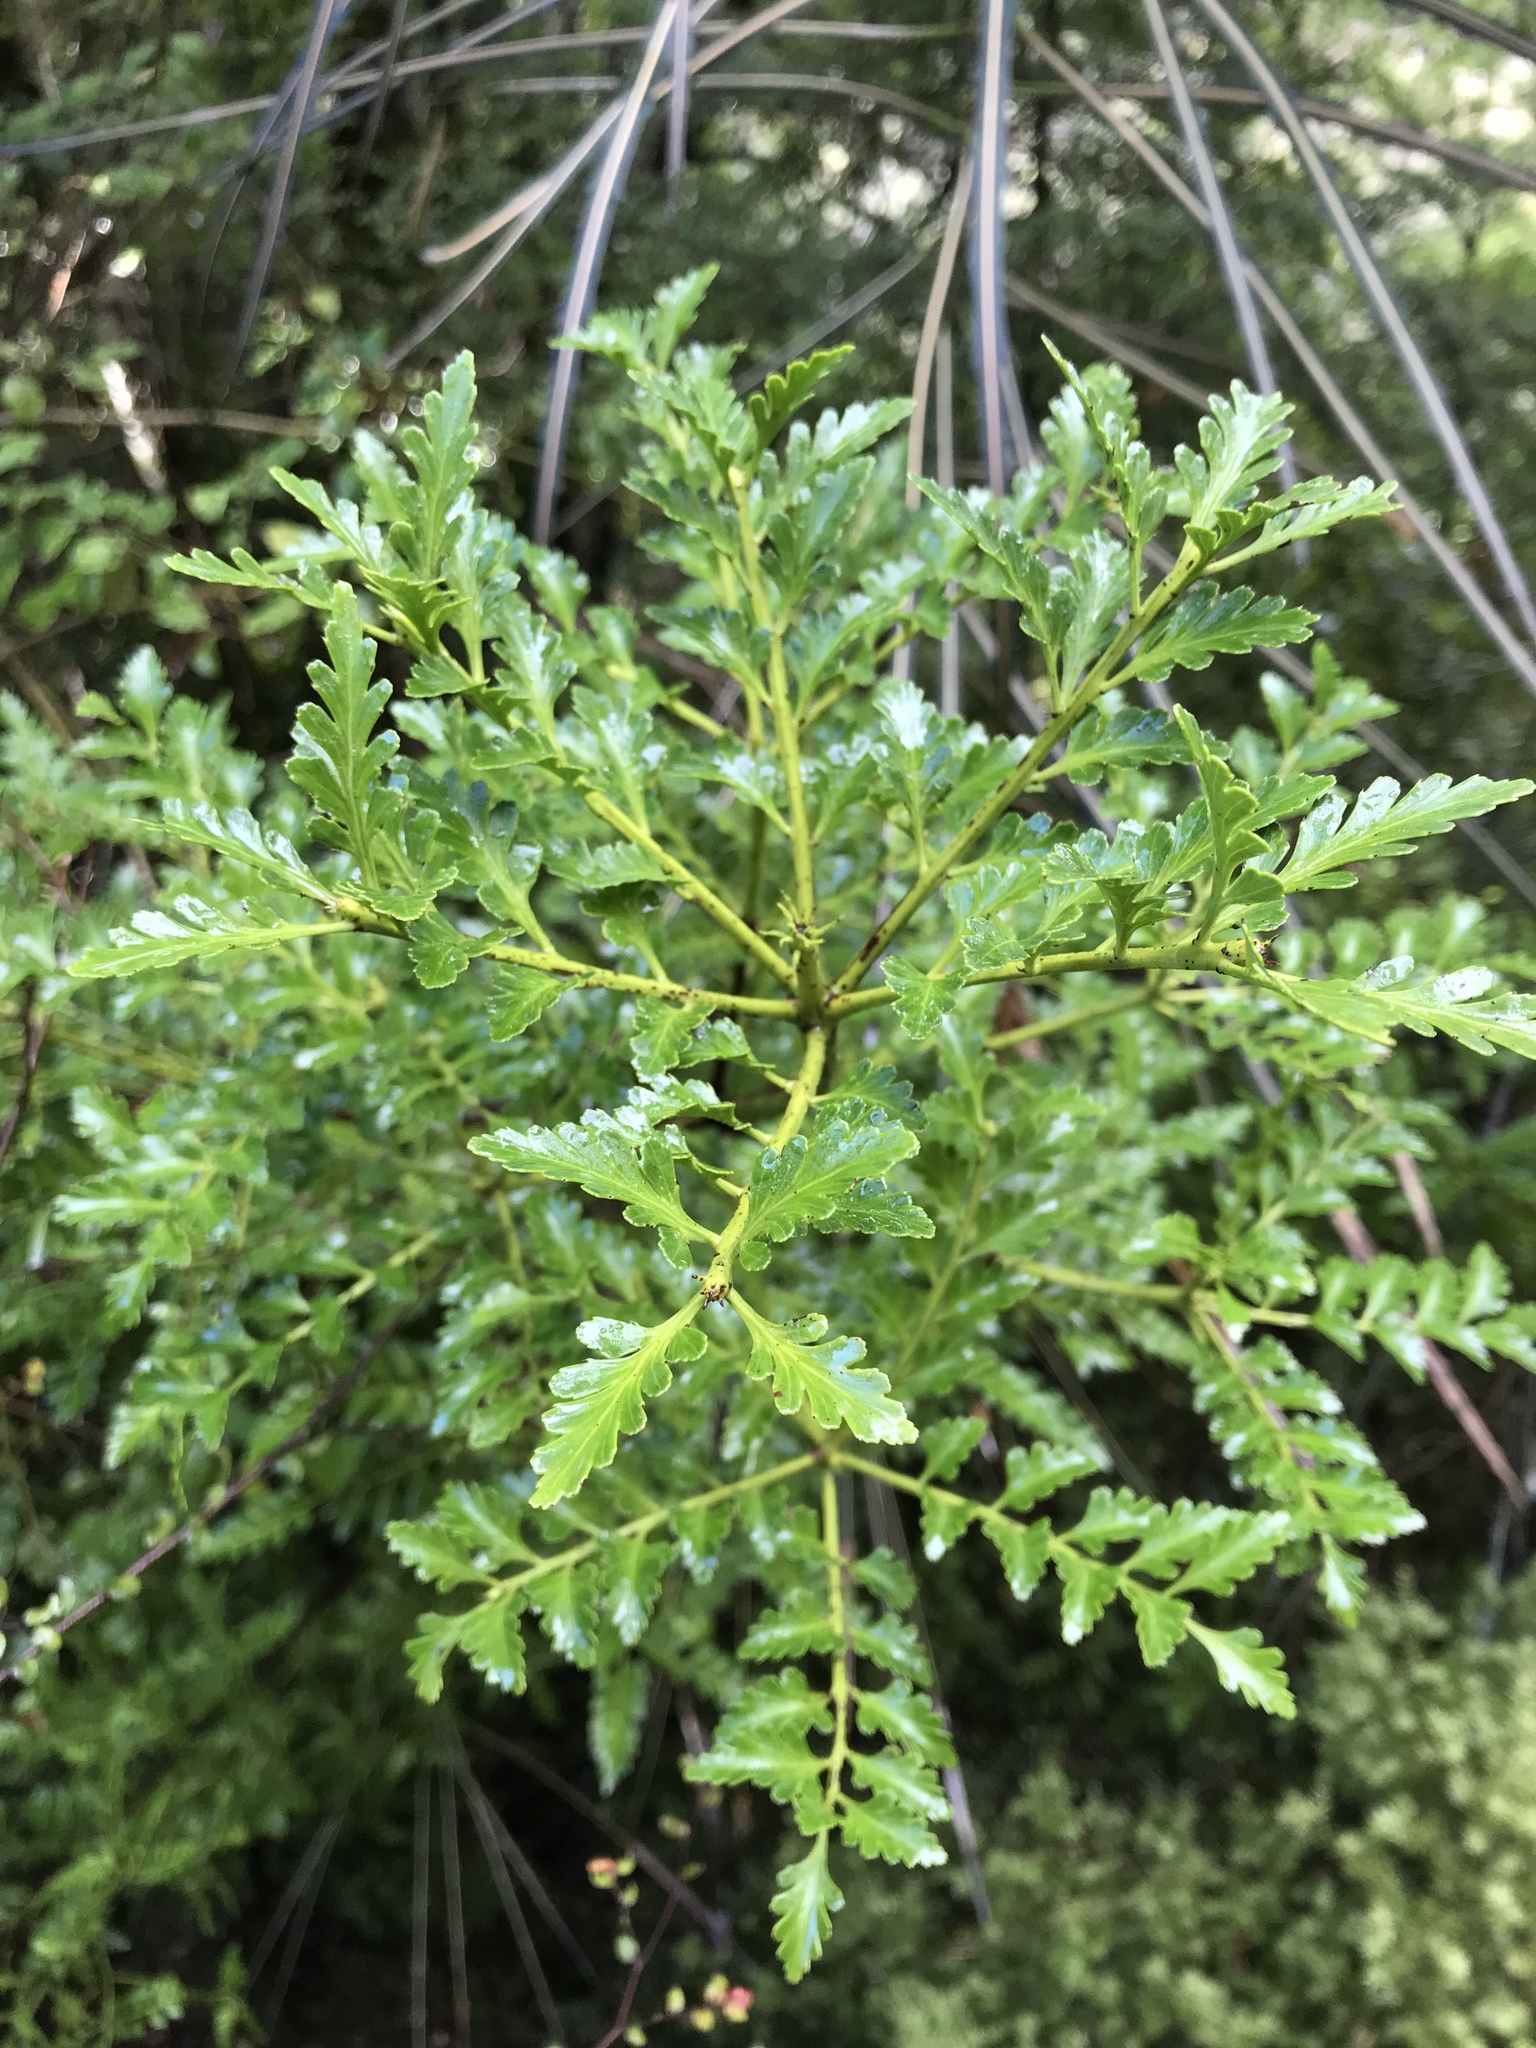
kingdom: Plantae
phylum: Tracheophyta
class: Pinopsida
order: Pinales
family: Phyllocladaceae
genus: Phyllocladus
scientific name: Phyllocladus trichomanoides
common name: Celery pine
